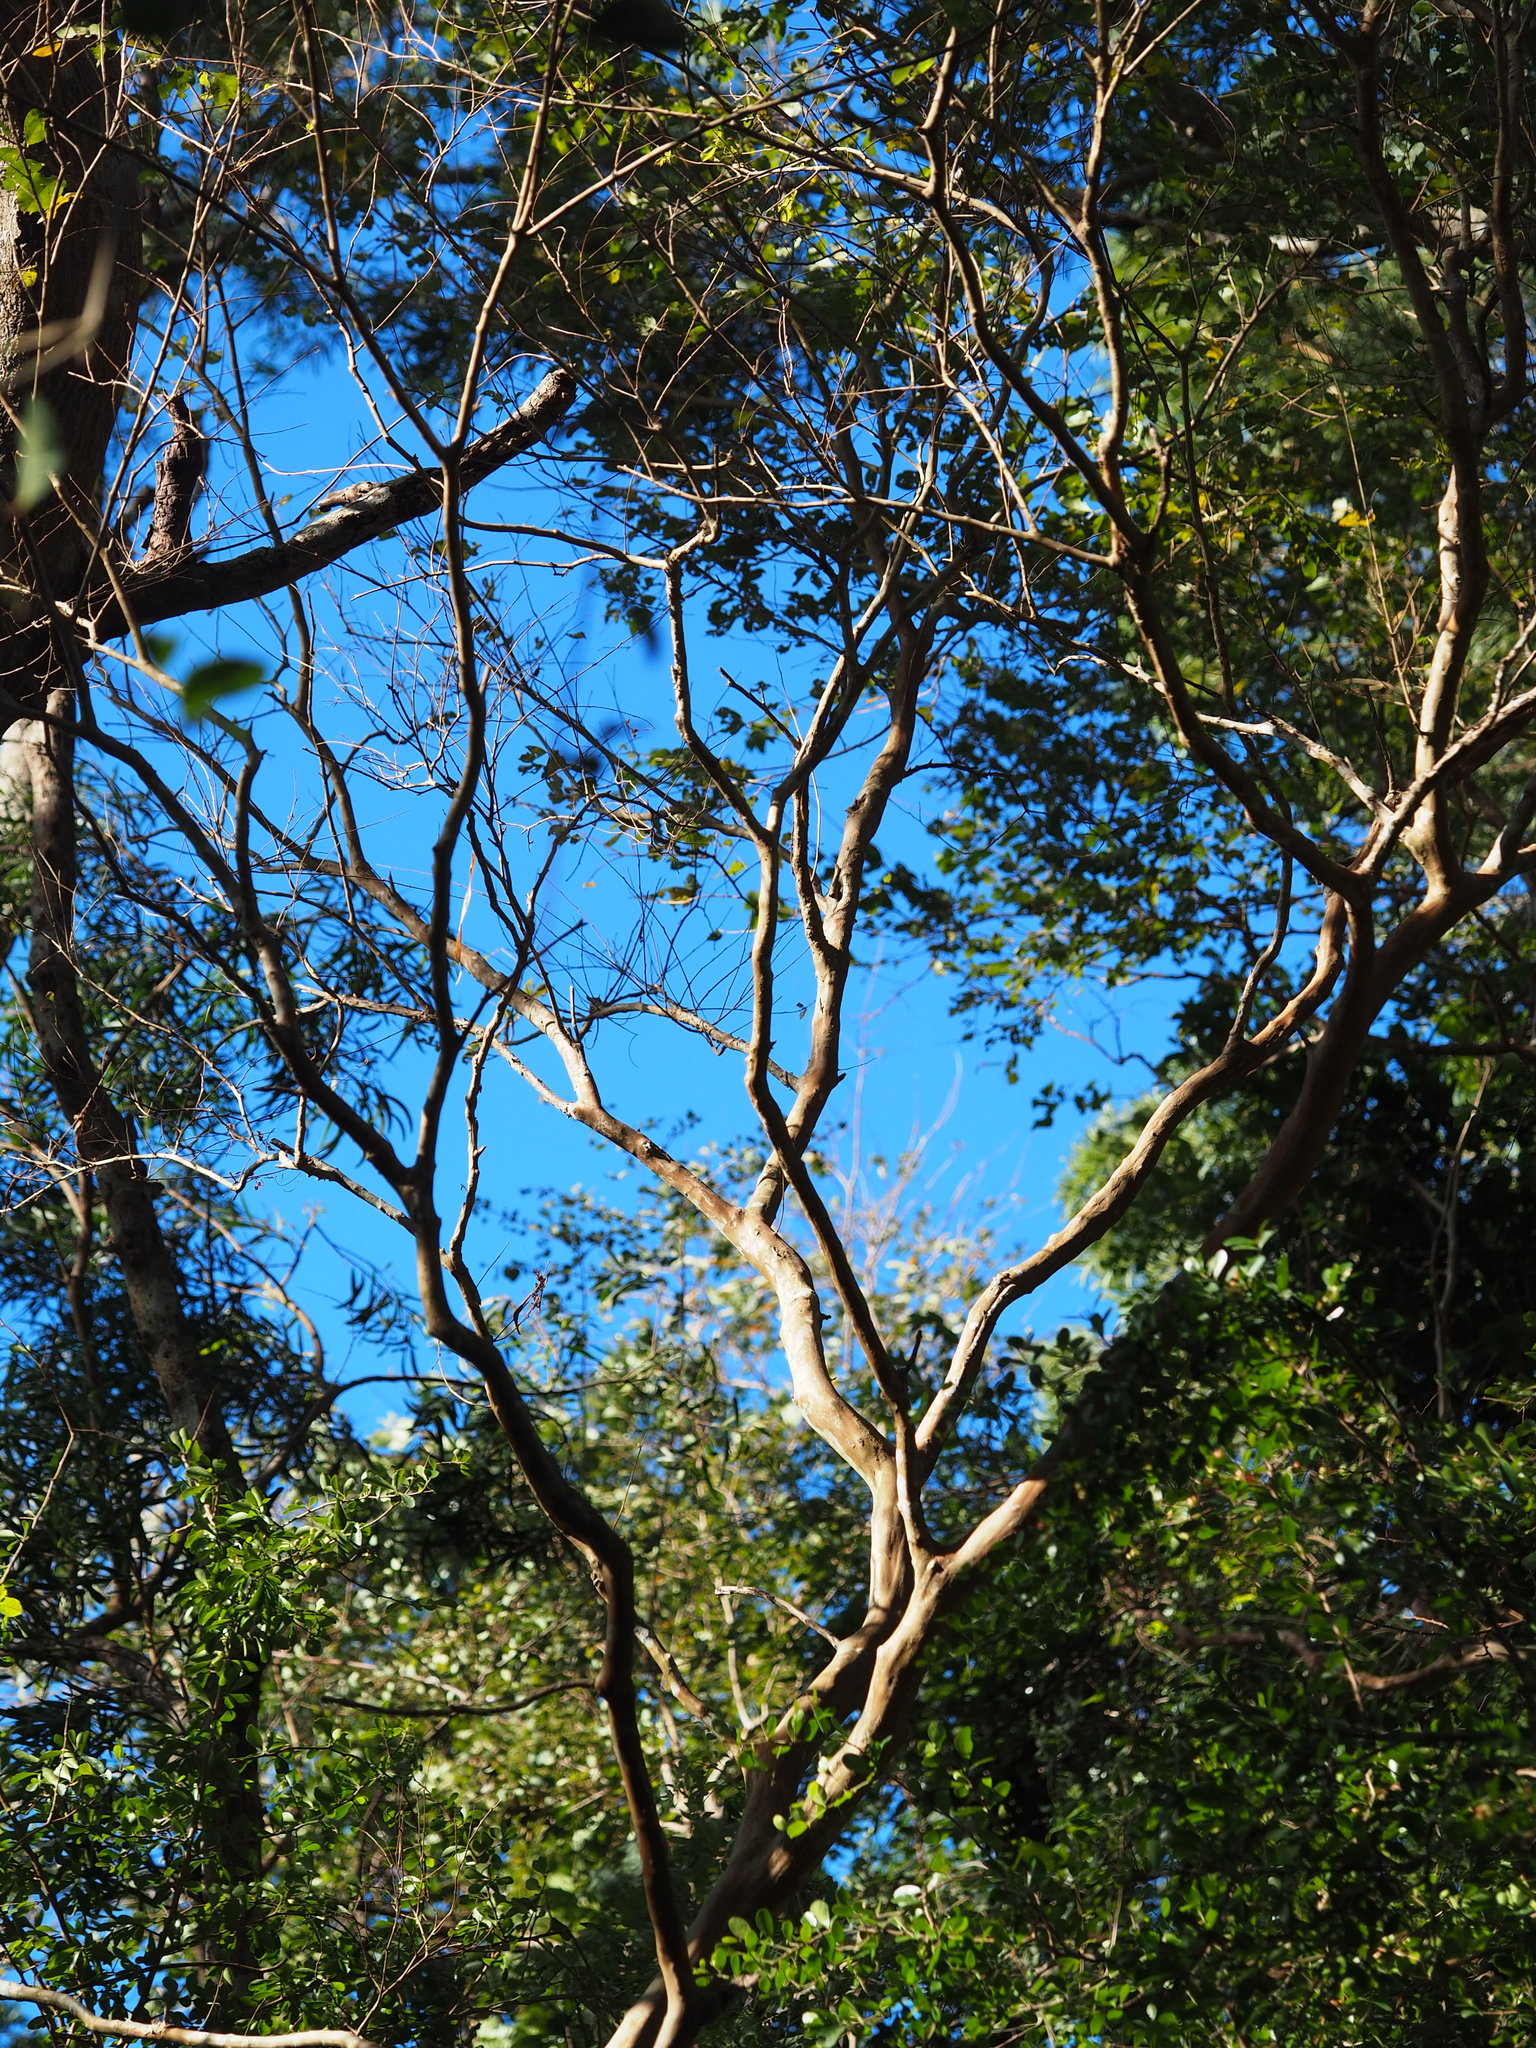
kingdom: Plantae
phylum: Tracheophyta
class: Magnoliopsida
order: Myrtales
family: Lythraceae
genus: Lagerstroemia
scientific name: Lagerstroemia subcostata
